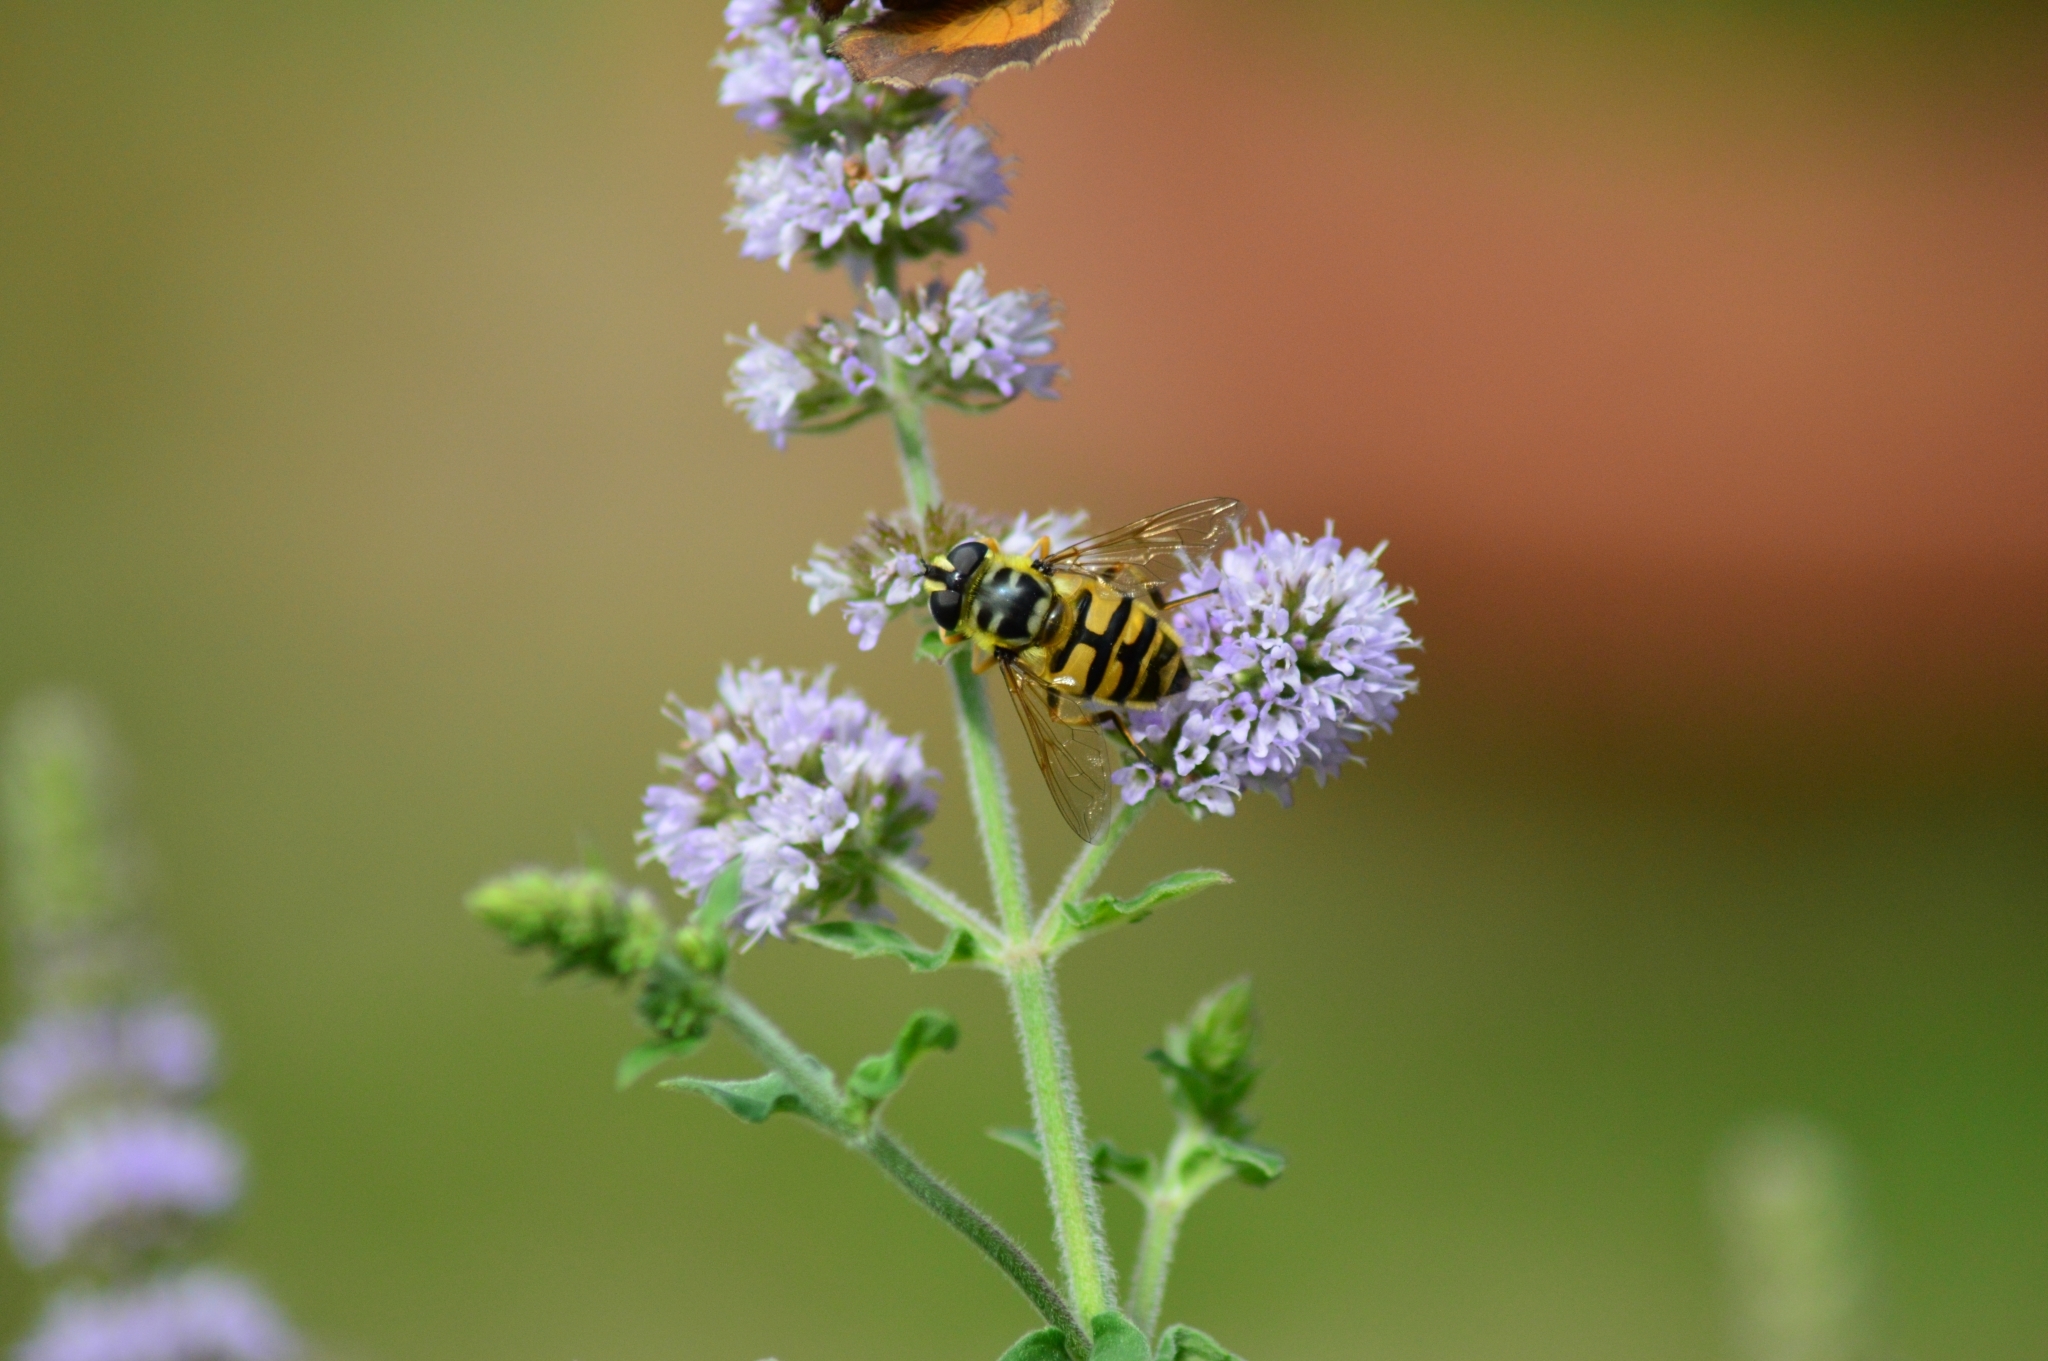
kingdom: Animalia
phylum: Arthropoda
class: Insecta
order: Diptera
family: Syrphidae
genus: Myathropa
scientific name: Myathropa florea
